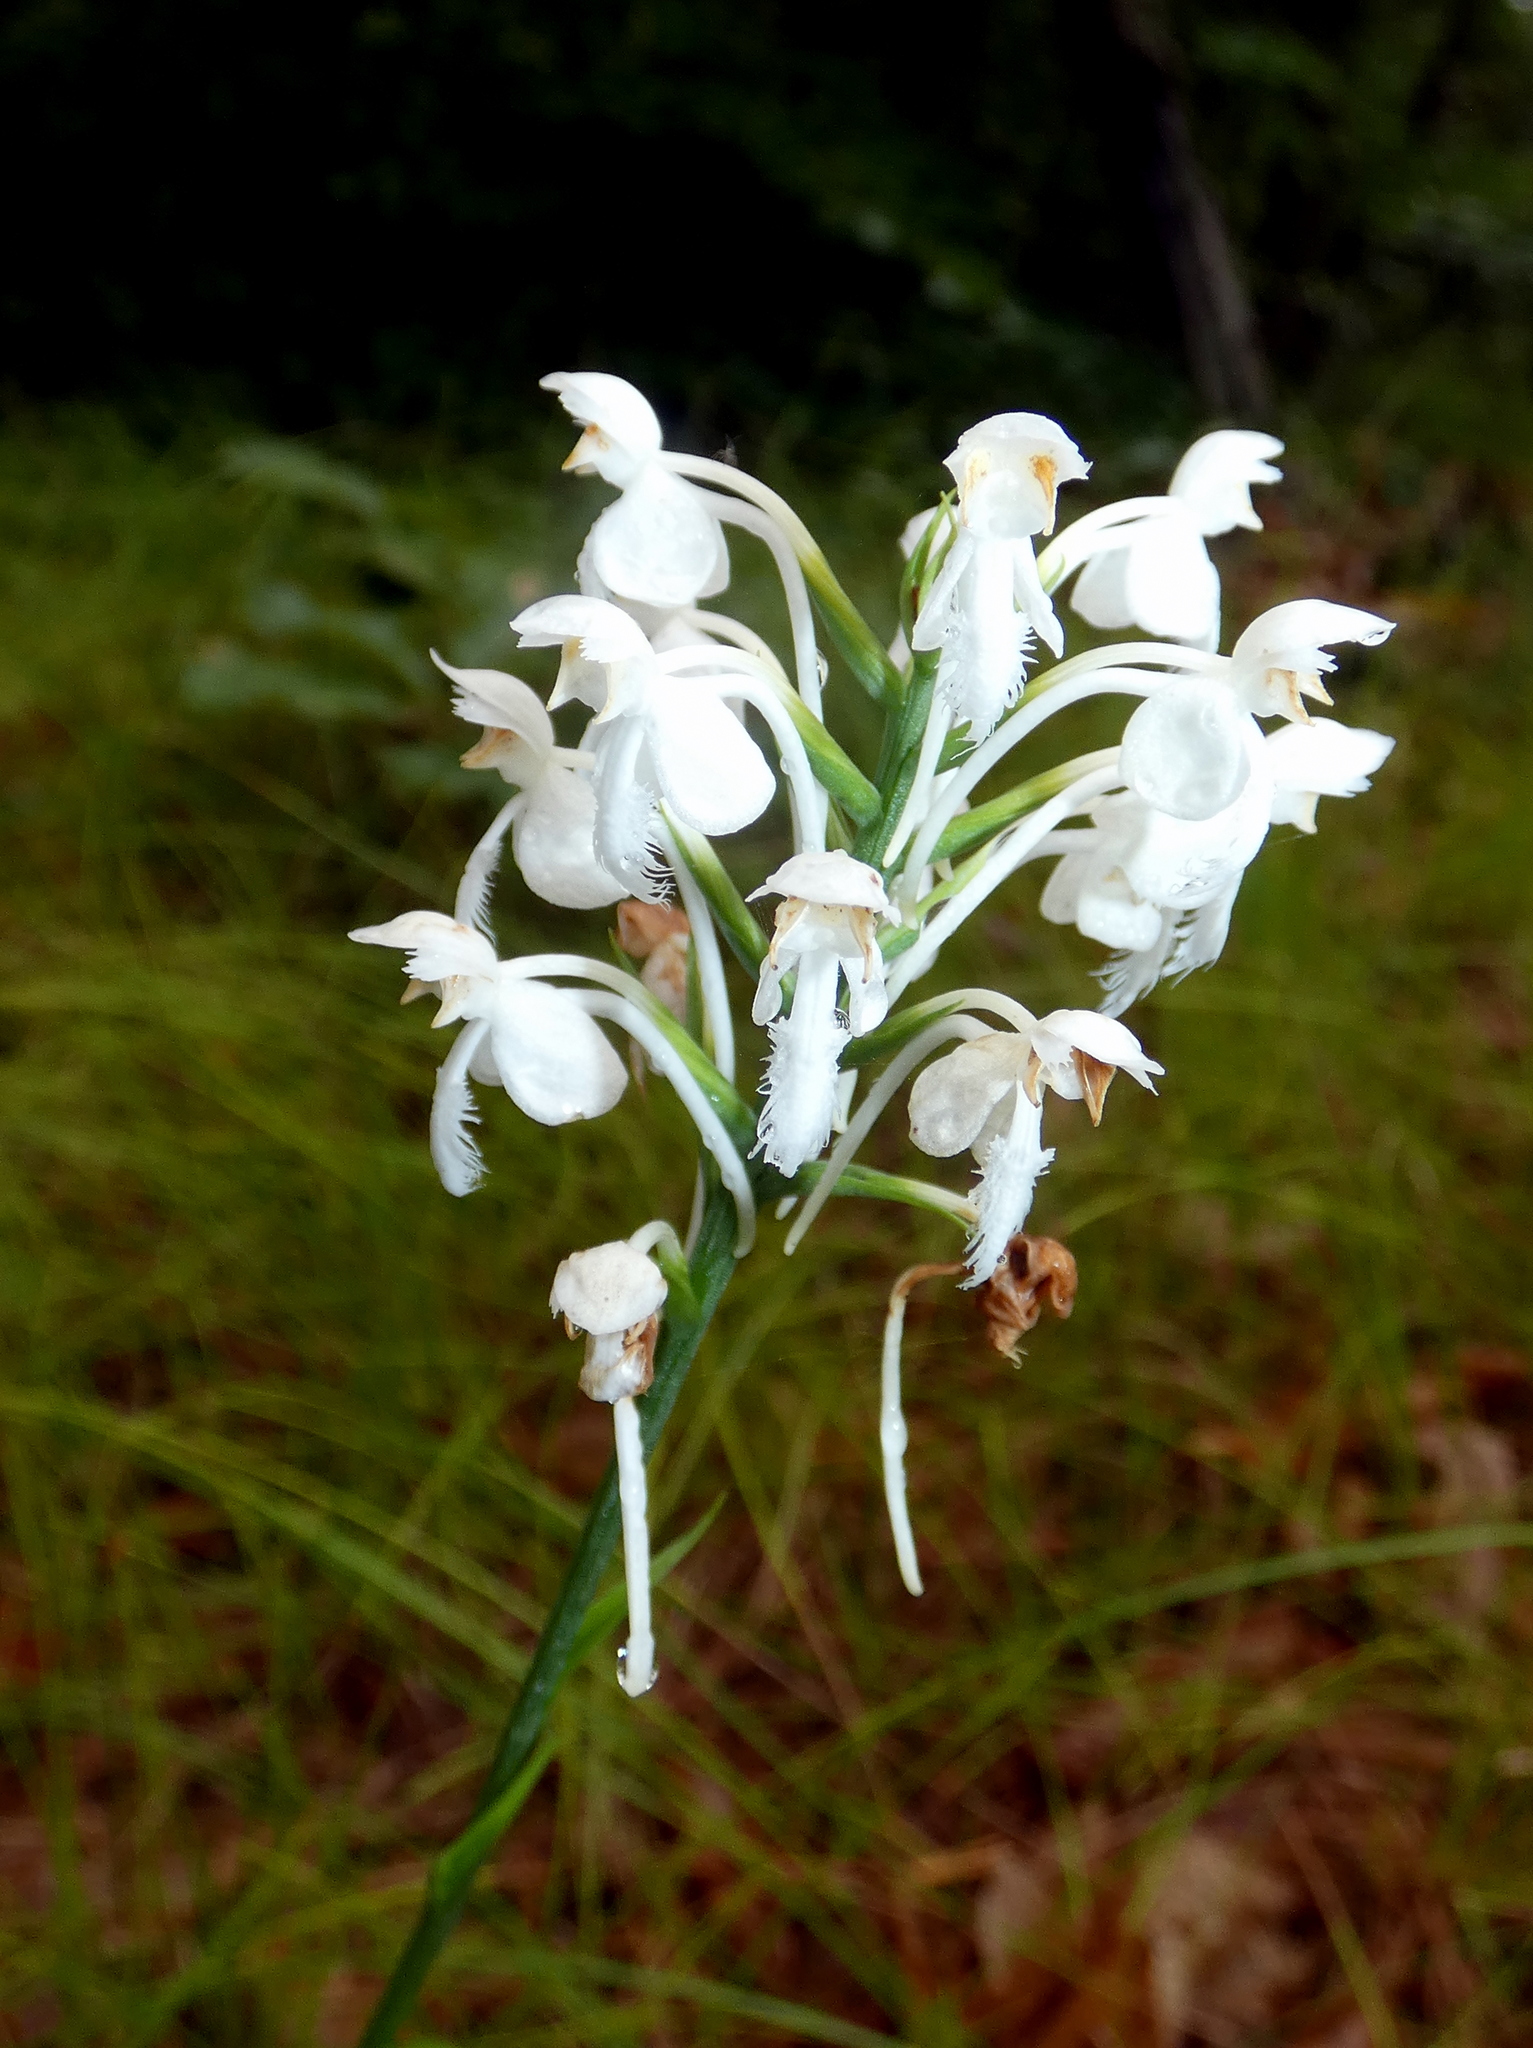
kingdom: Plantae
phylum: Tracheophyta
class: Liliopsida
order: Asparagales
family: Orchidaceae
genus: Platanthera
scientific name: Platanthera blephariglottis
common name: White fringed orchid
